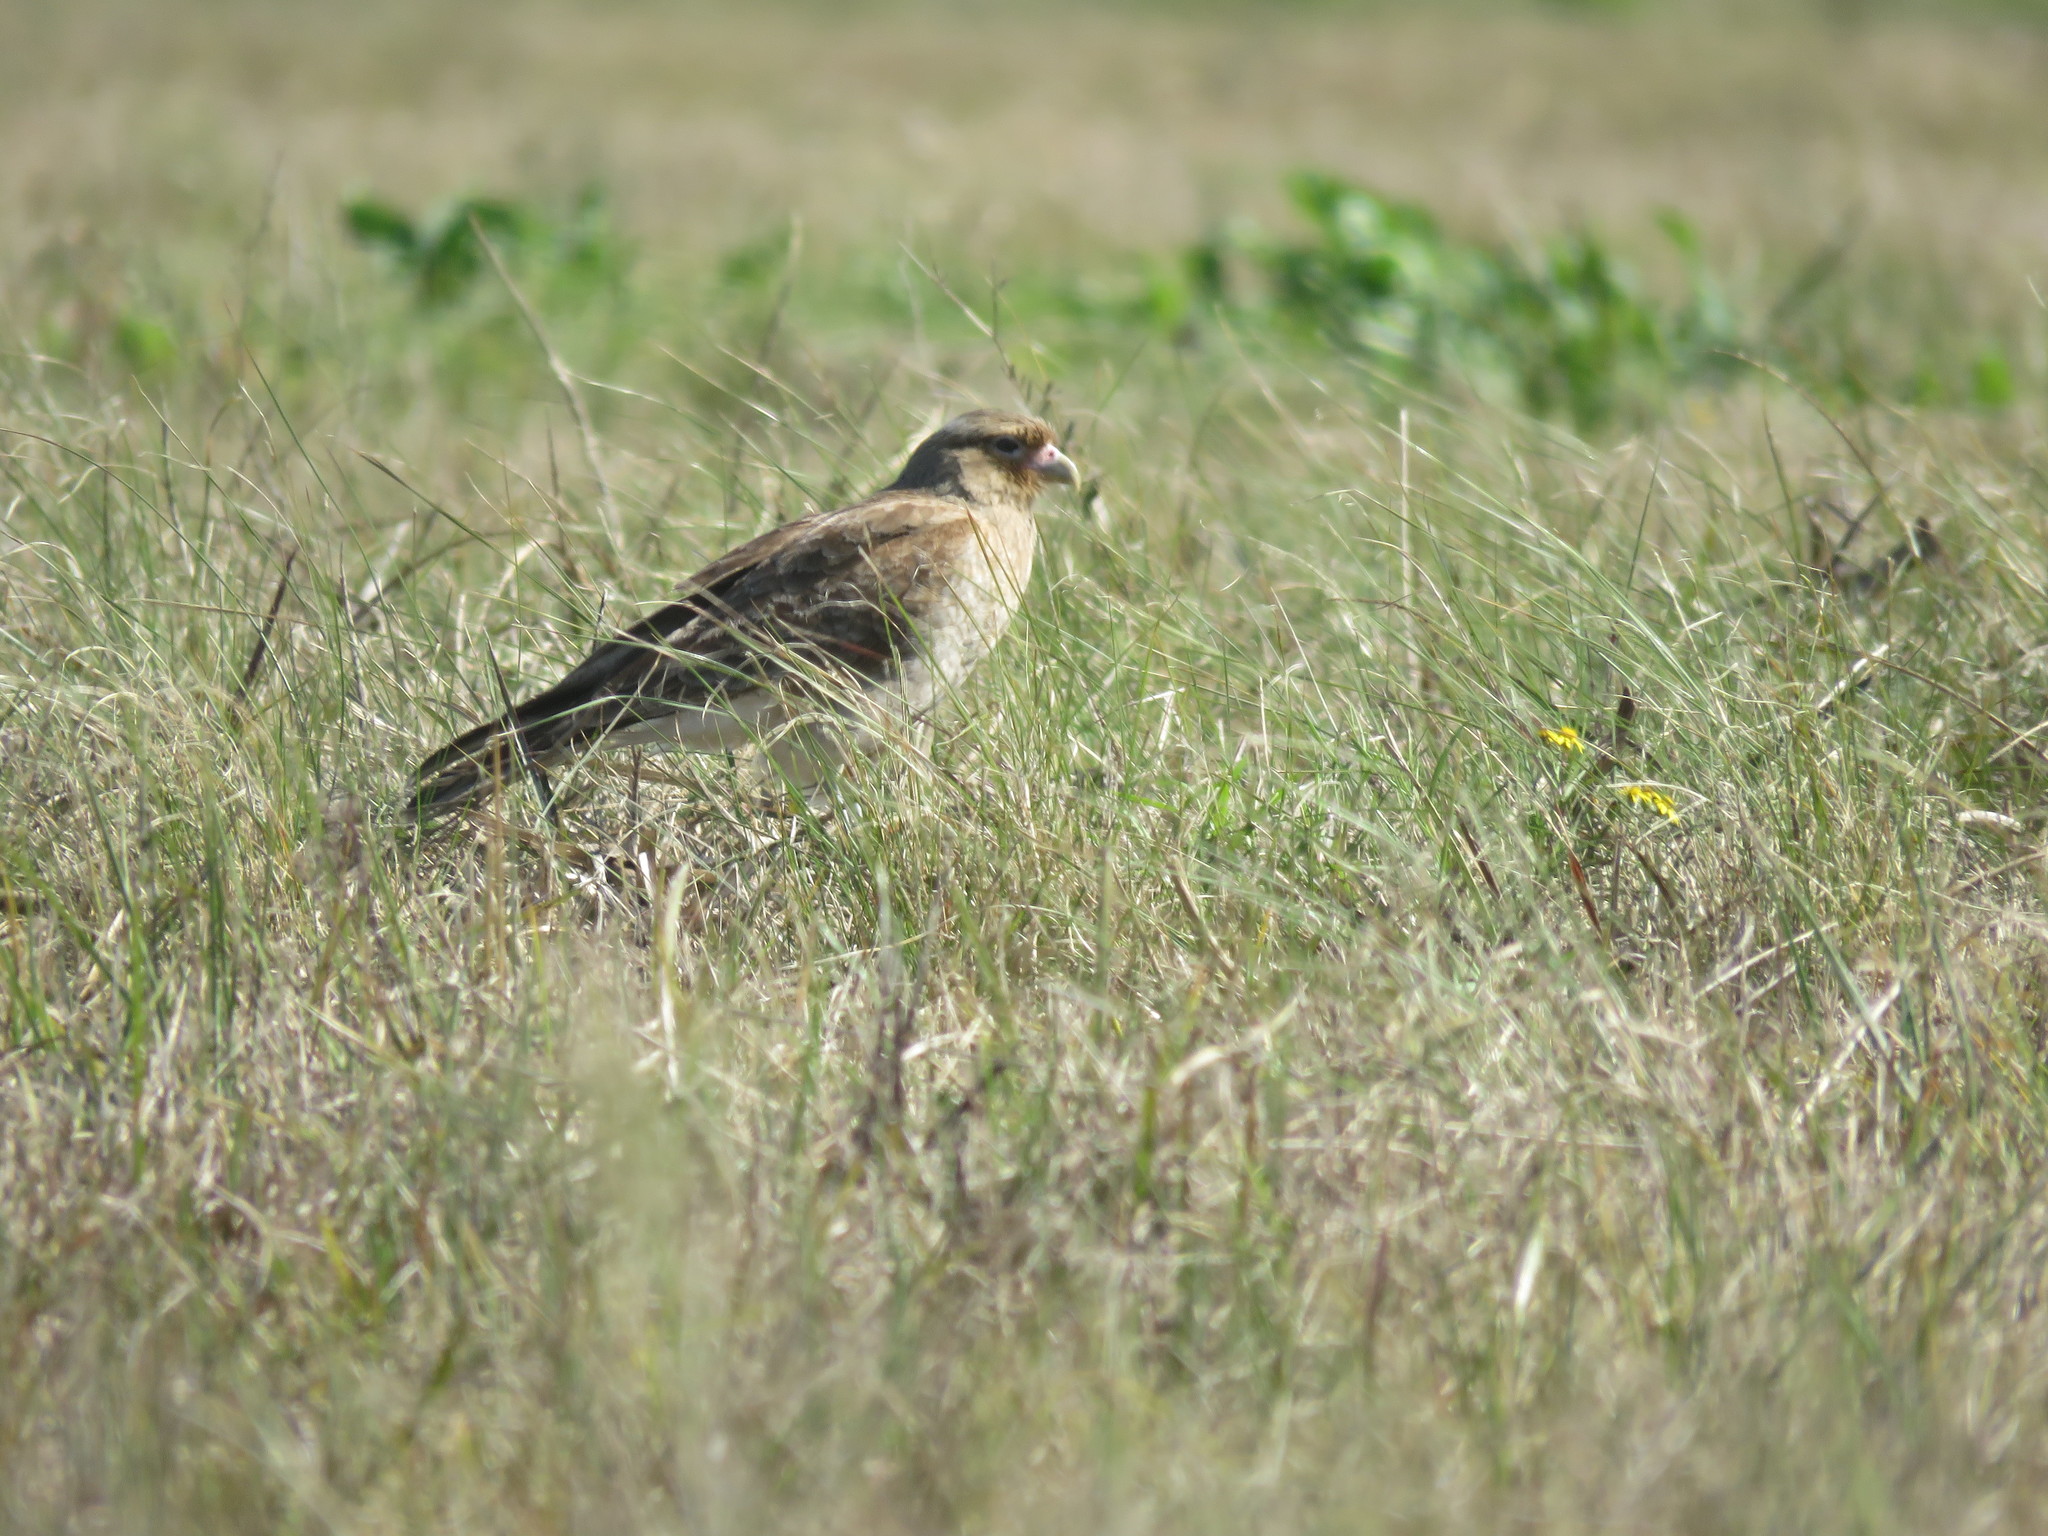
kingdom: Animalia
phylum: Chordata
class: Aves
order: Falconiformes
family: Falconidae
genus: Daptrius
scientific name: Daptrius
